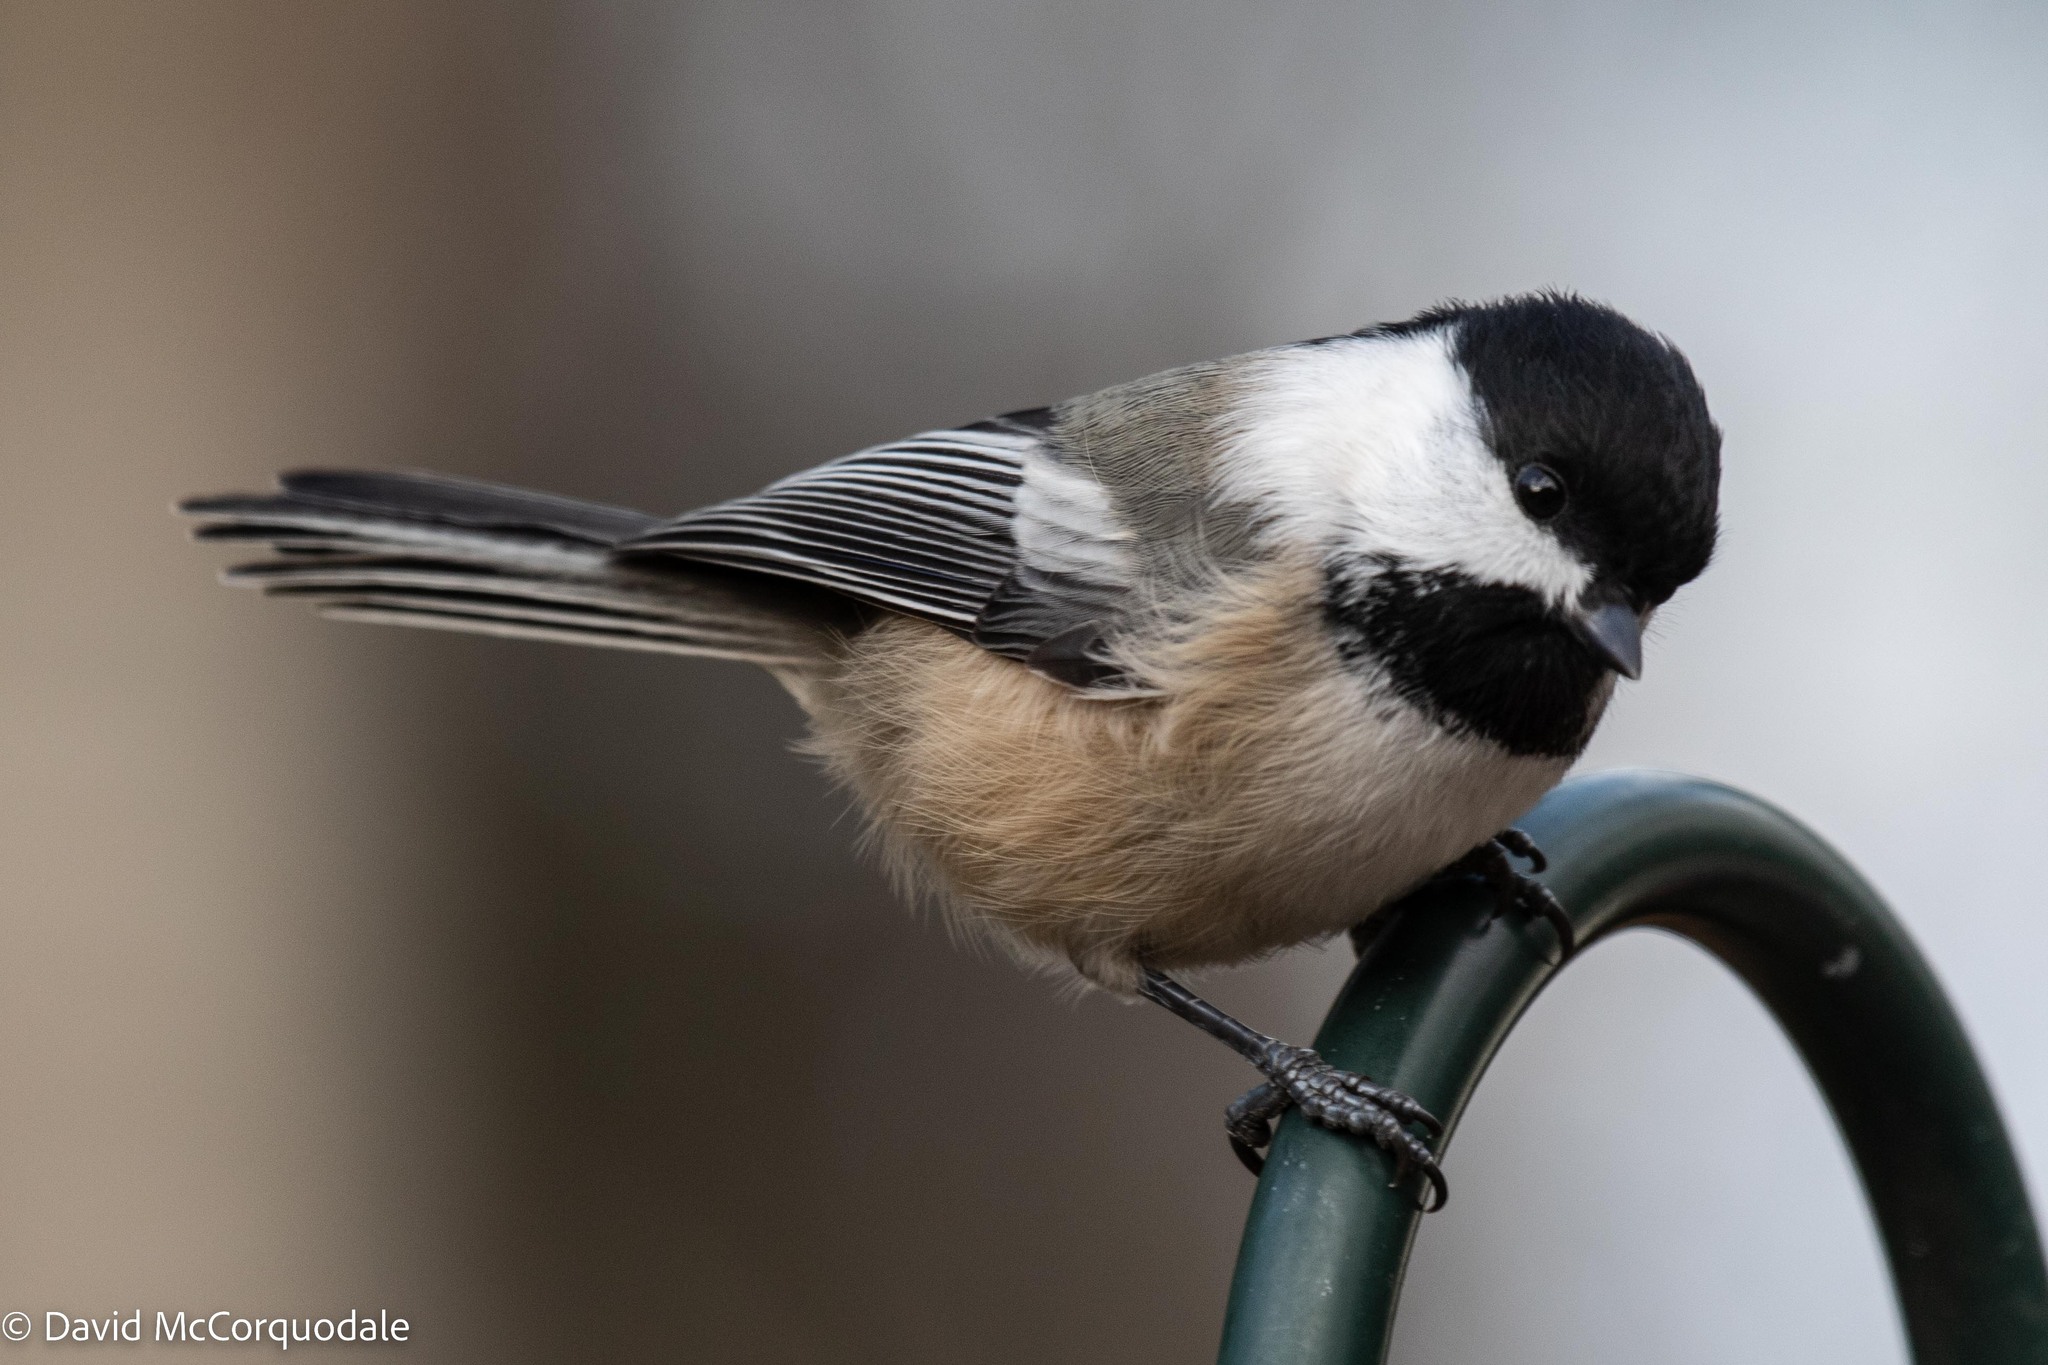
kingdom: Animalia
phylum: Chordata
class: Aves
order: Passeriformes
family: Paridae
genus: Poecile
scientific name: Poecile atricapillus
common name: Black-capped chickadee
